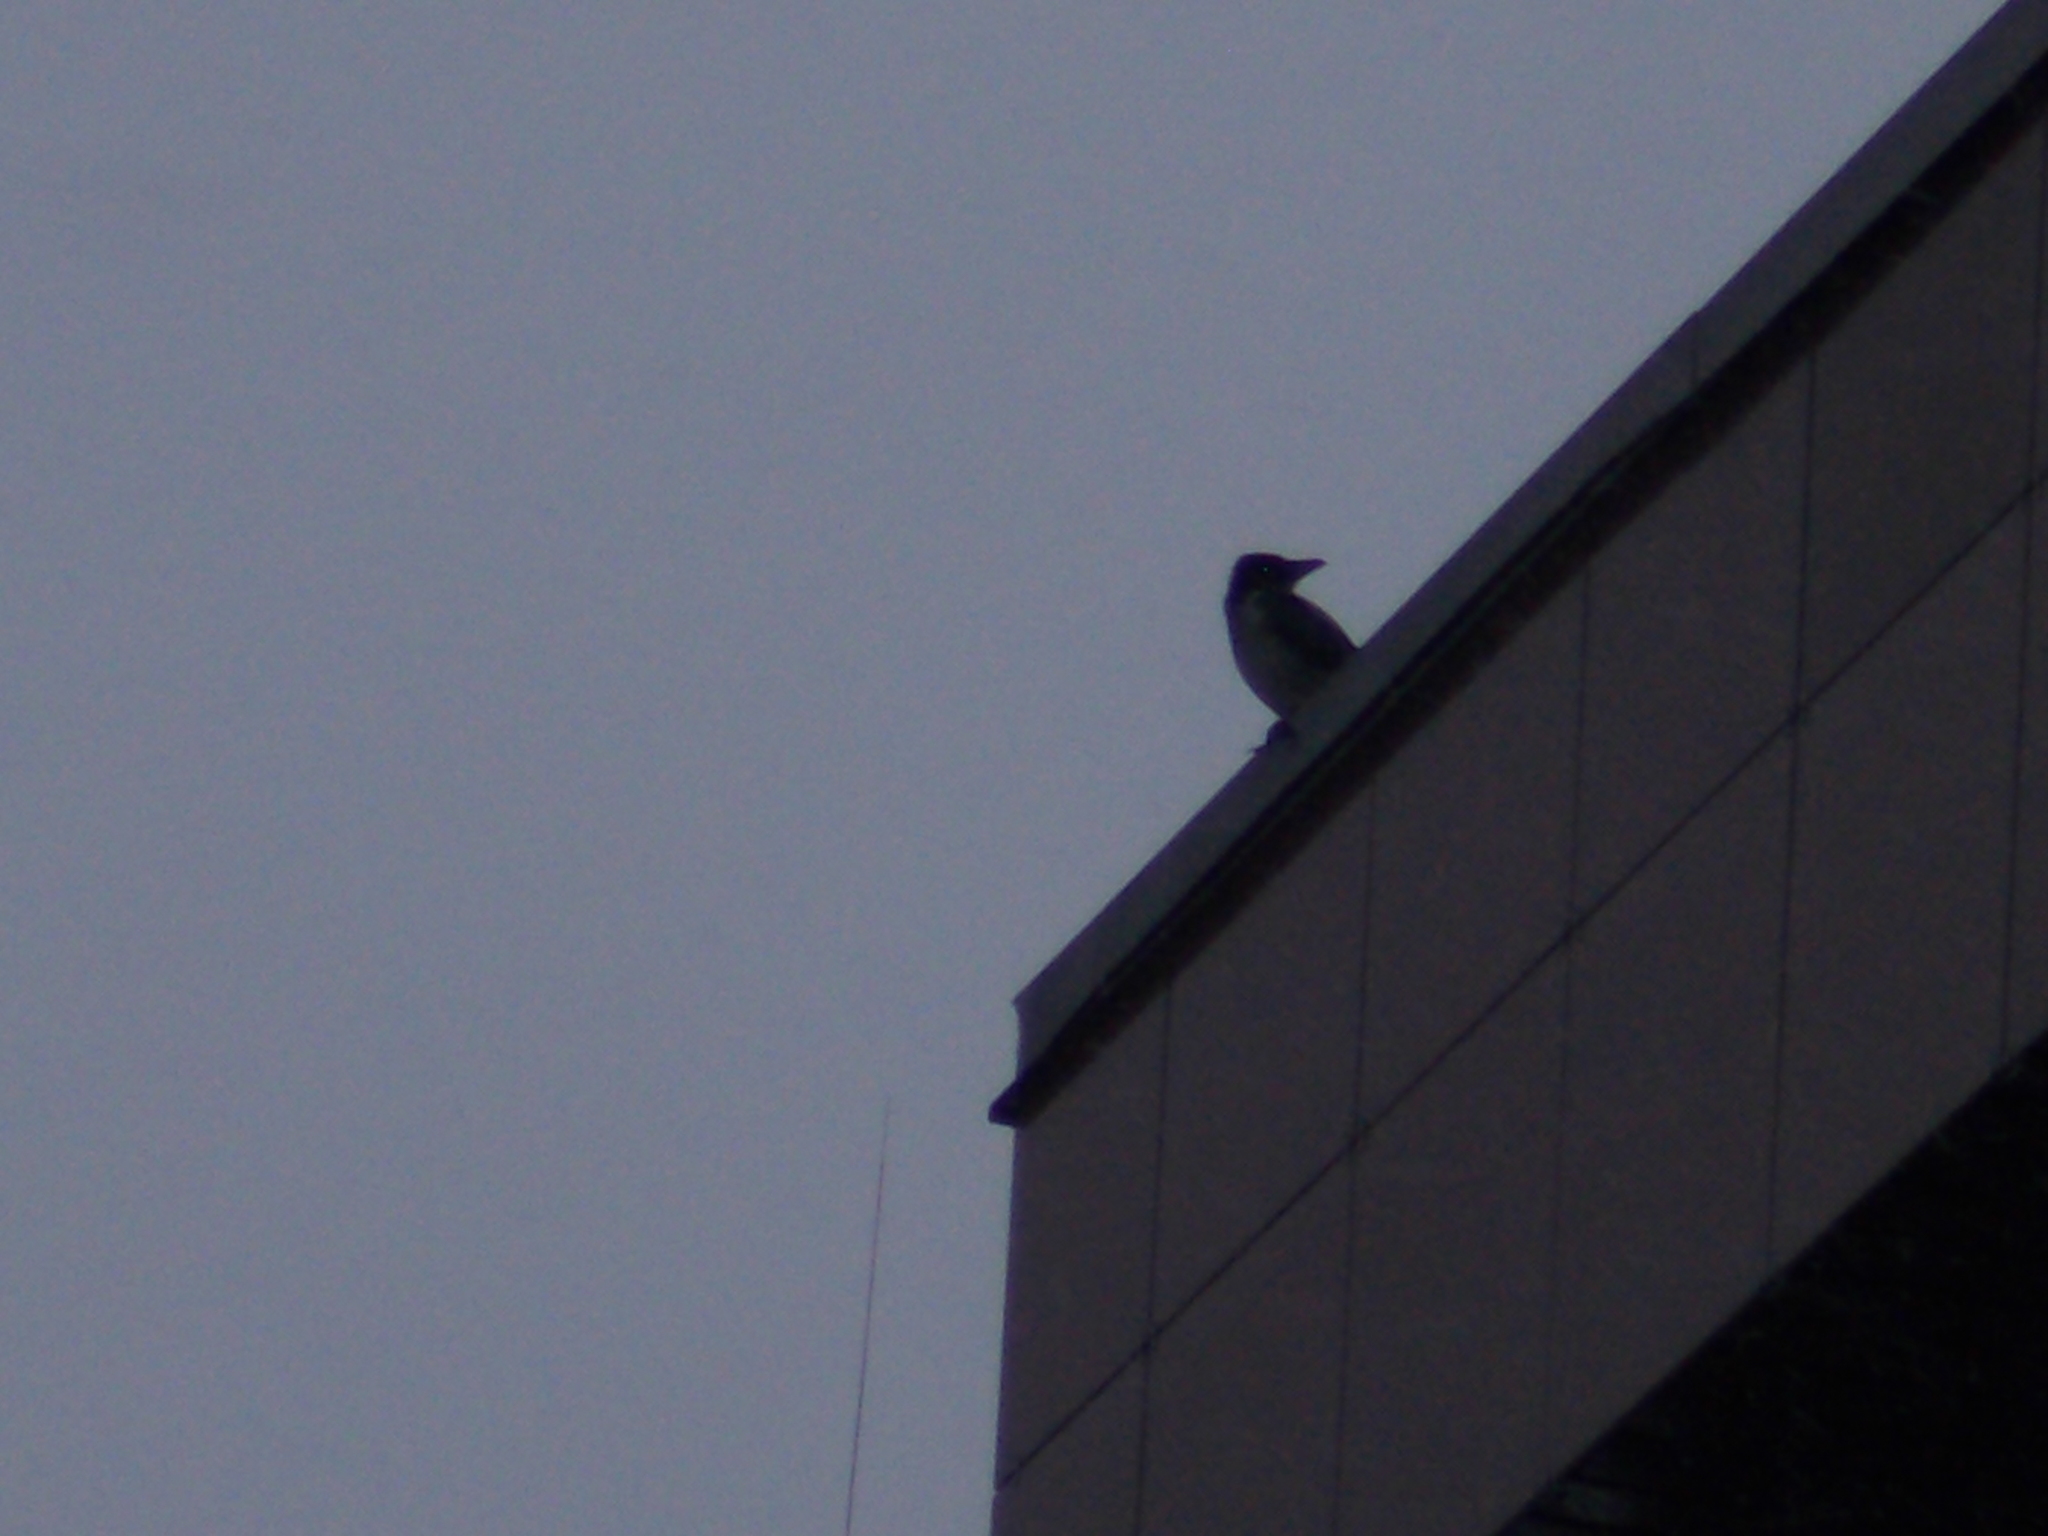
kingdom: Animalia
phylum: Chordata
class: Aves
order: Passeriformes
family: Corvidae
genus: Corvus
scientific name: Corvus cornix
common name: Hooded crow
